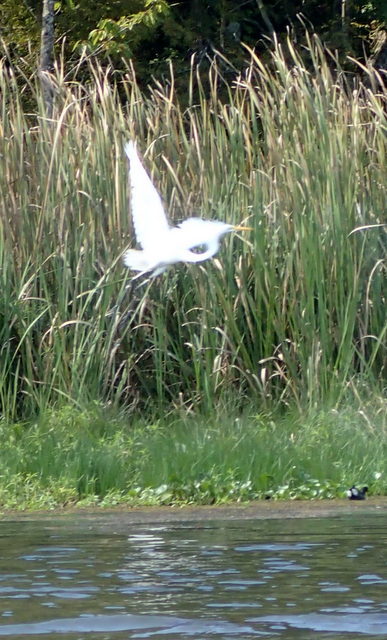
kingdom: Animalia
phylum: Chordata
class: Aves
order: Pelecaniformes
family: Ardeidae
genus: Ardea
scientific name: Ardea alba
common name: Great egret
